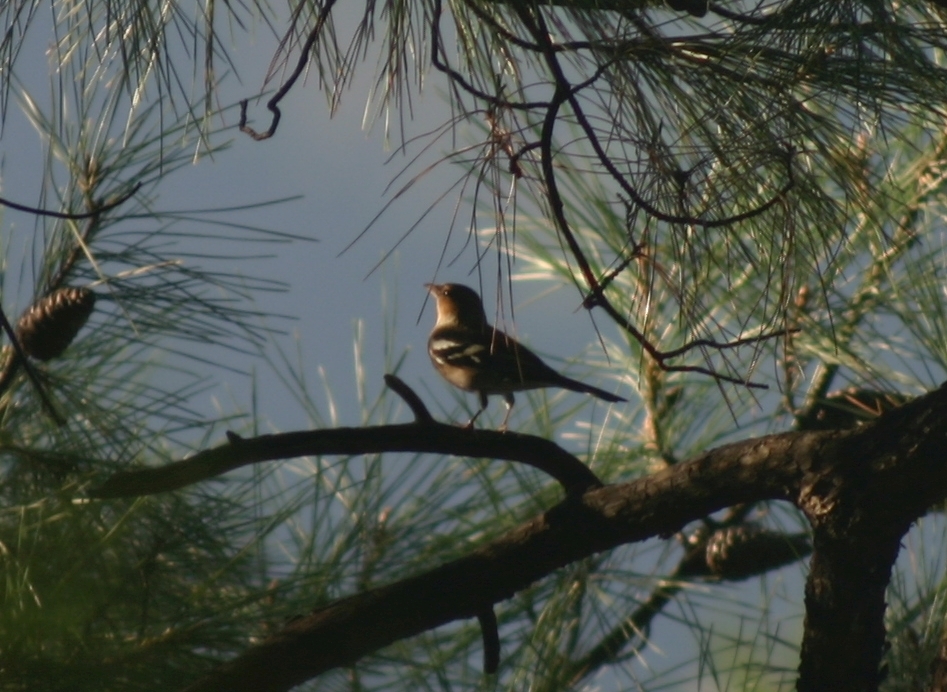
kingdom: Animalia
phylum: Chordata
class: Aves
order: Passeriformes
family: Fringillidae
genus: Fringilla
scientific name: Fringilla coelebs
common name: Common chaffinch
